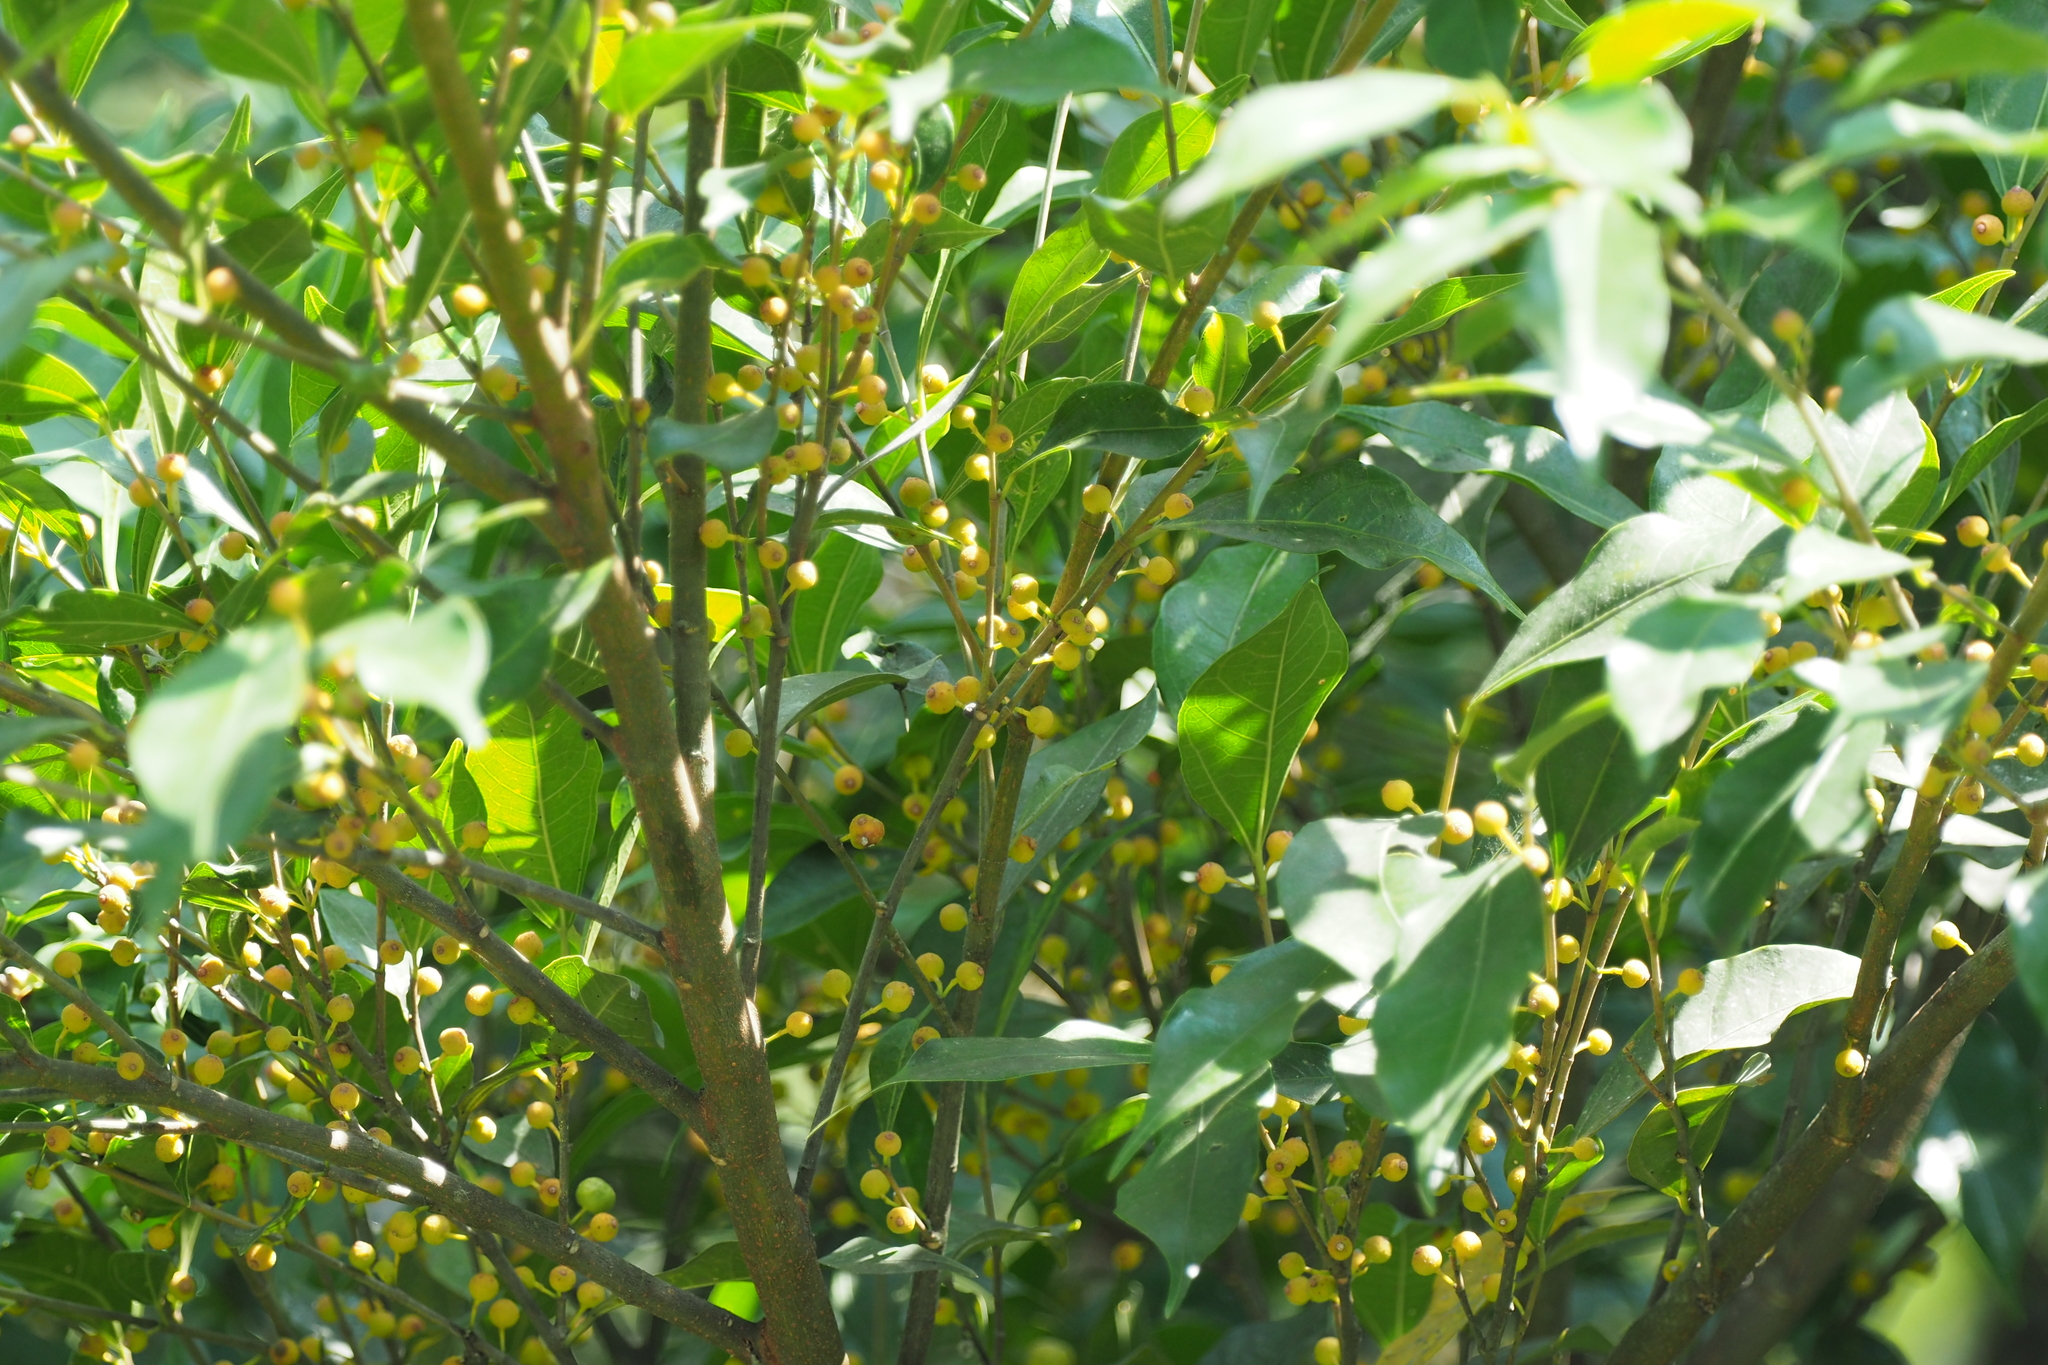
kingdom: Plantae
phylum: Tracheophyta
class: Magnoliopsida
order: Rosales
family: Moraceae
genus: Ficus
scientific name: Ficus ampelos
